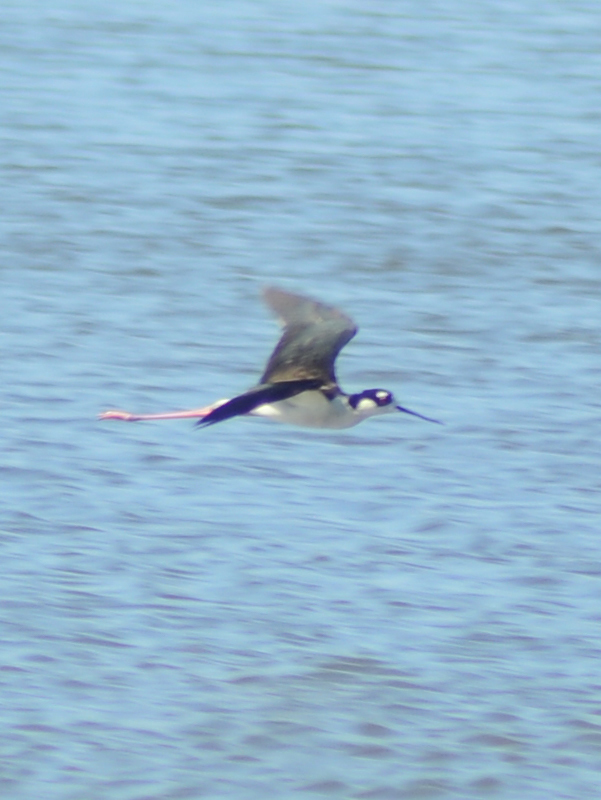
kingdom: Animalia
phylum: Chordata
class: Aves
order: Charadriiformes
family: Recurvirostridae
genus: Himantopus
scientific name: Himantopus mexicanus
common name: Black-necked stilt
